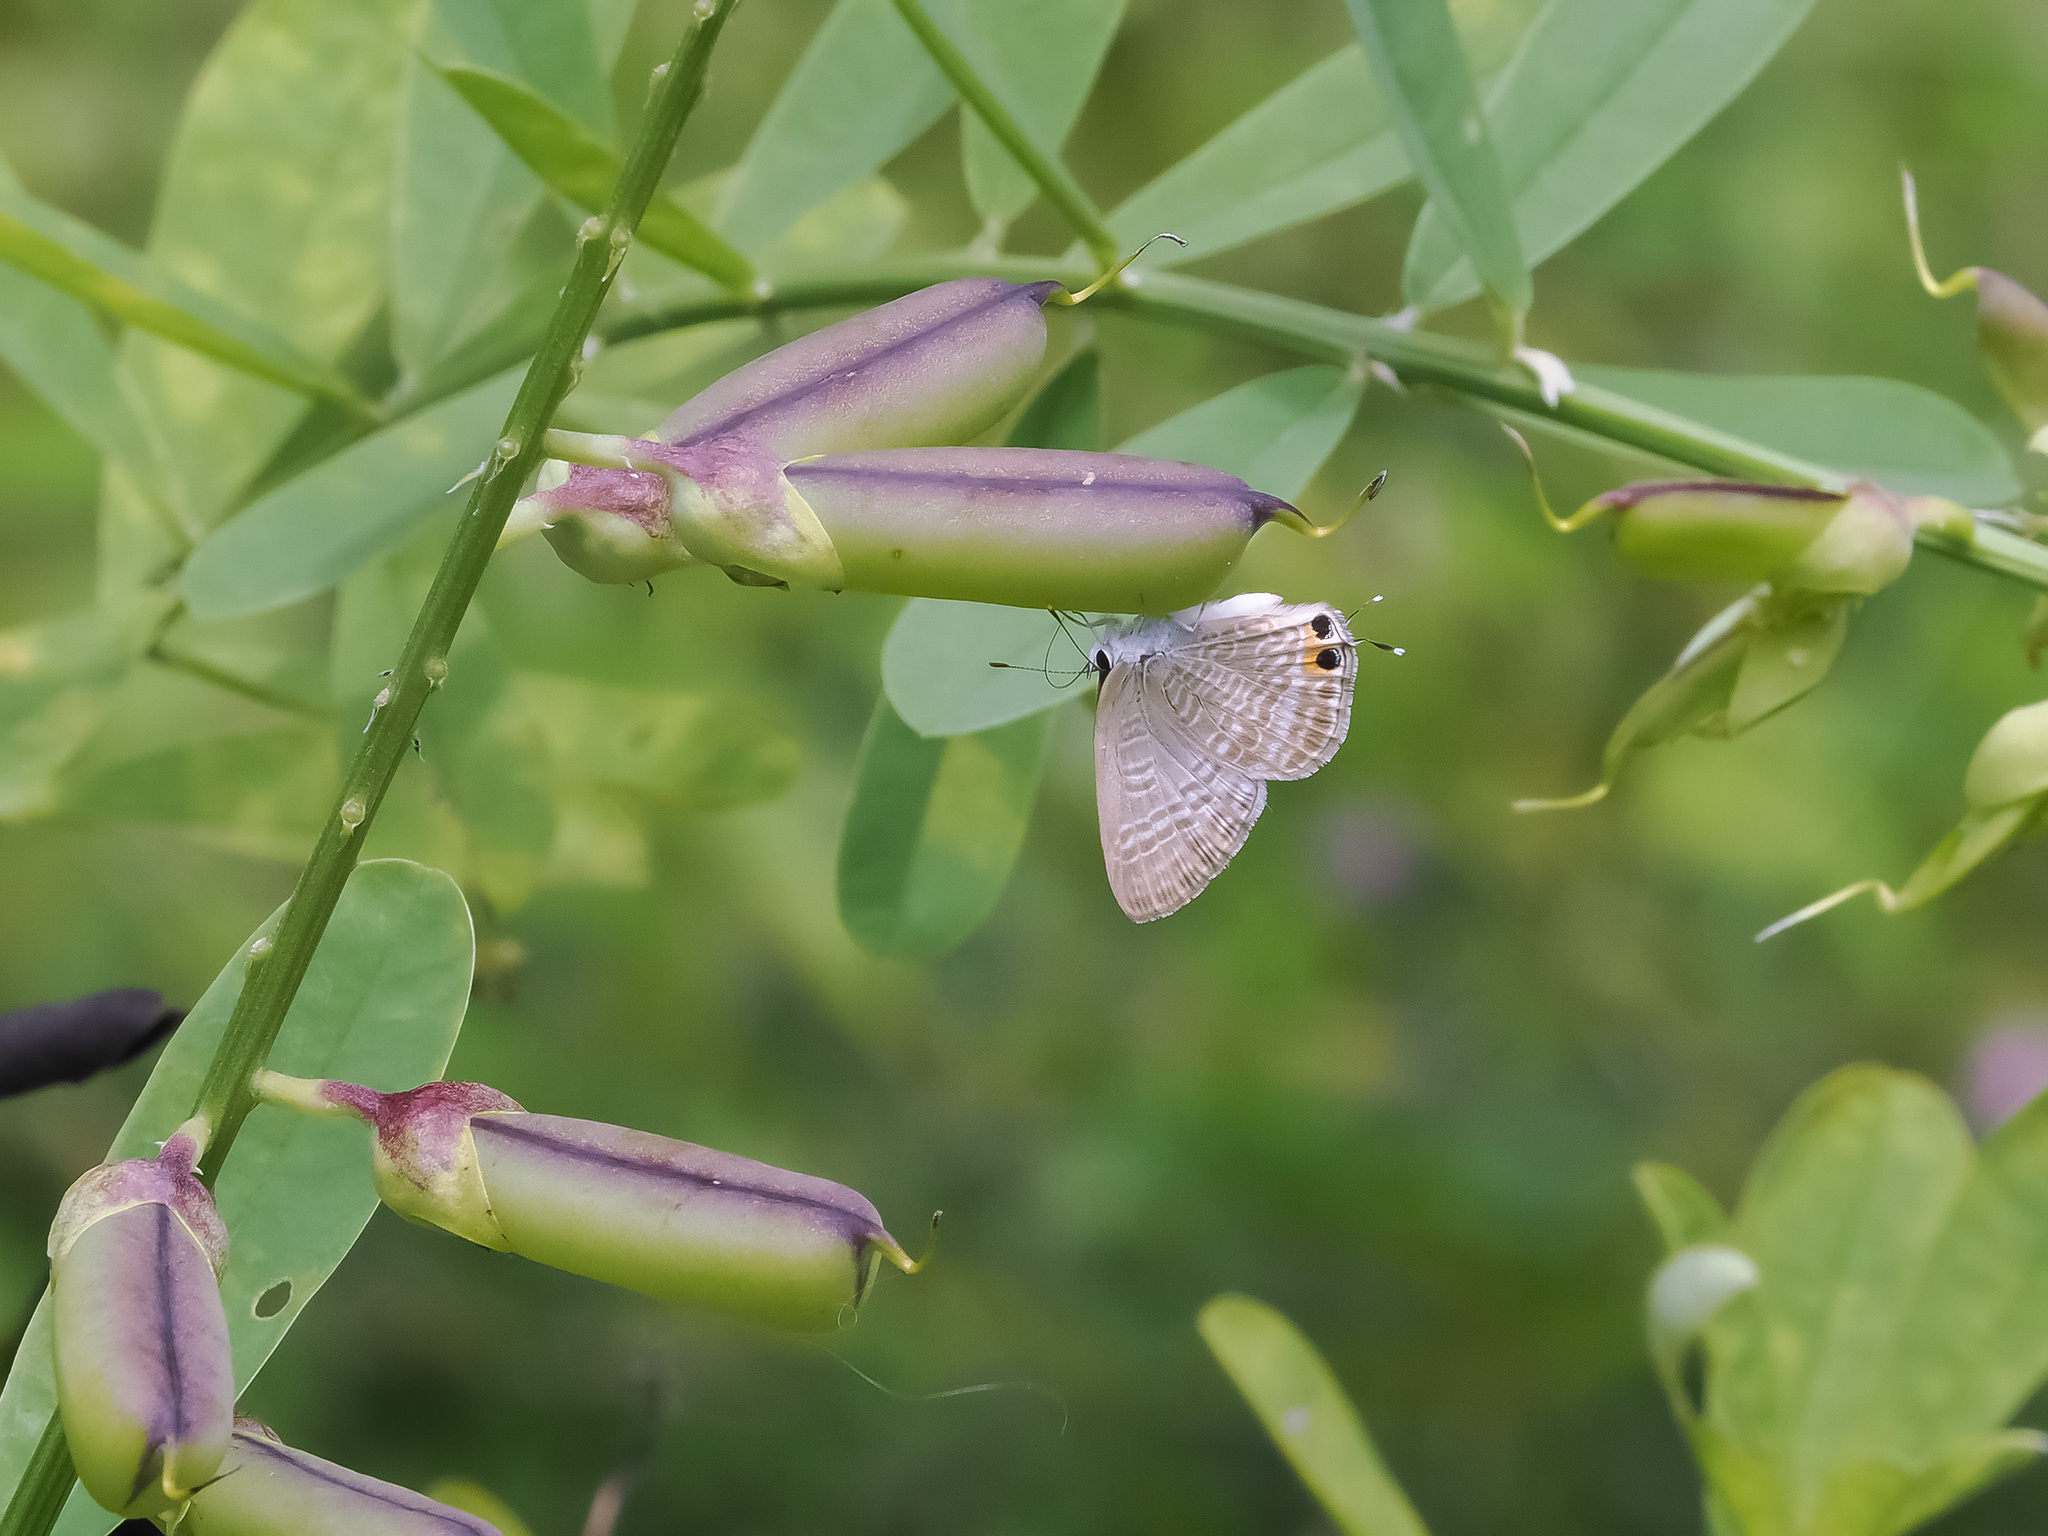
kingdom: Animalia
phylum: Arthropoda
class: Insecta
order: Lepidoptera
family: Lycaenidae
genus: Lampides
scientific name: Lampides boeticus
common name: Long-tailed blue
